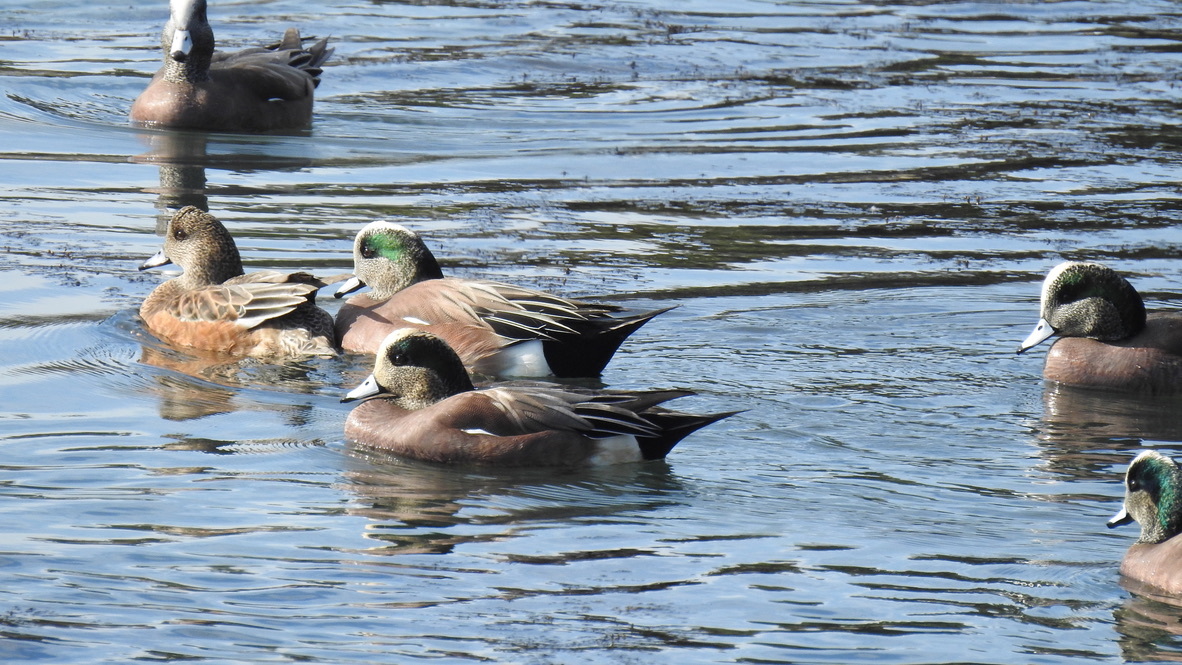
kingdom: Animalia
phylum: Chordata
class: Aves
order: Anseriformes
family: Anatidae
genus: Mareca
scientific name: Mareca americana
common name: American wigeon
